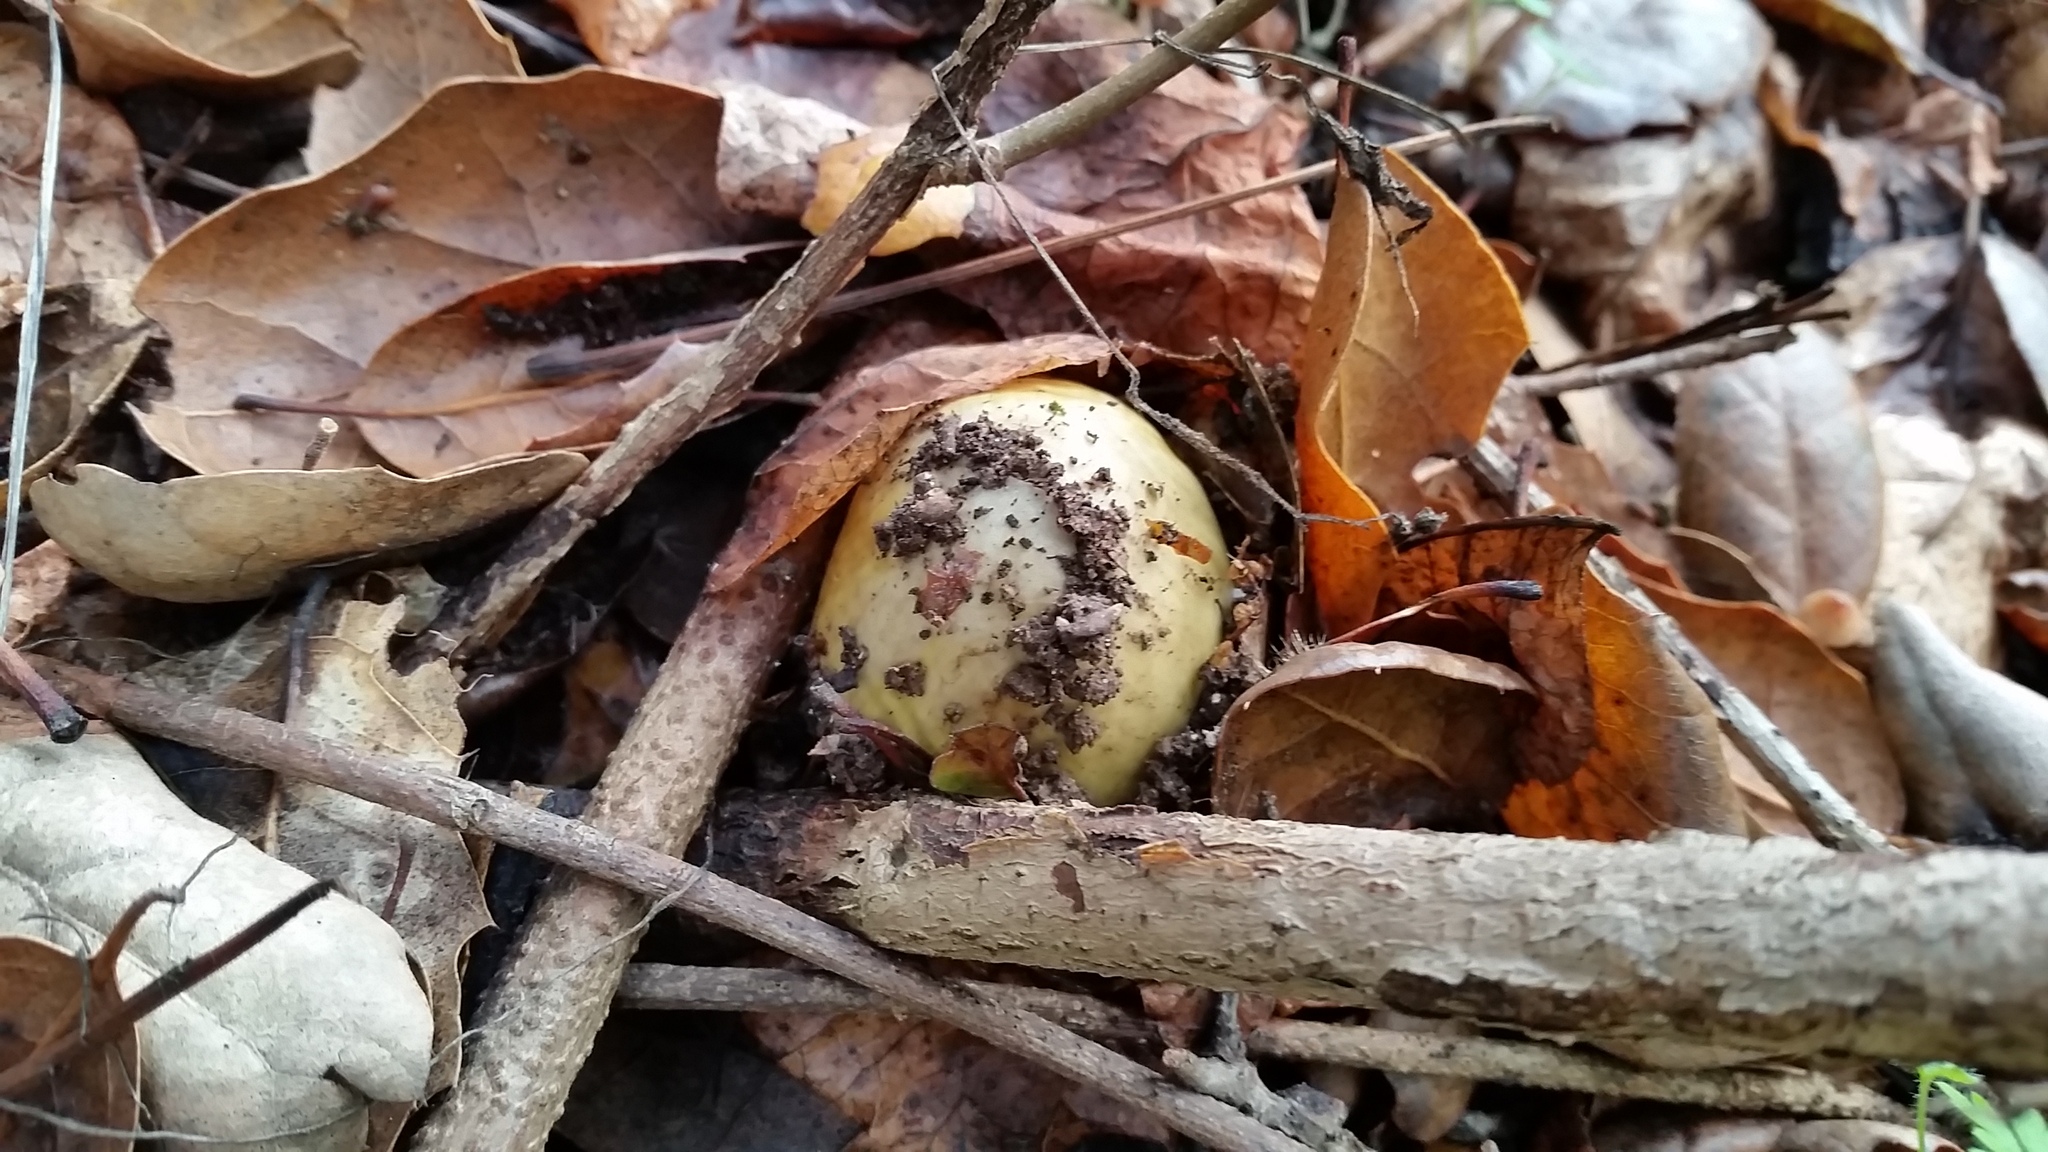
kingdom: Fungi
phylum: Basidiomycota
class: Agaricomycetes
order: Agaricales
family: Amanitaceae
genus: Amanita
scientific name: Amanita phalloides
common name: Death cap
